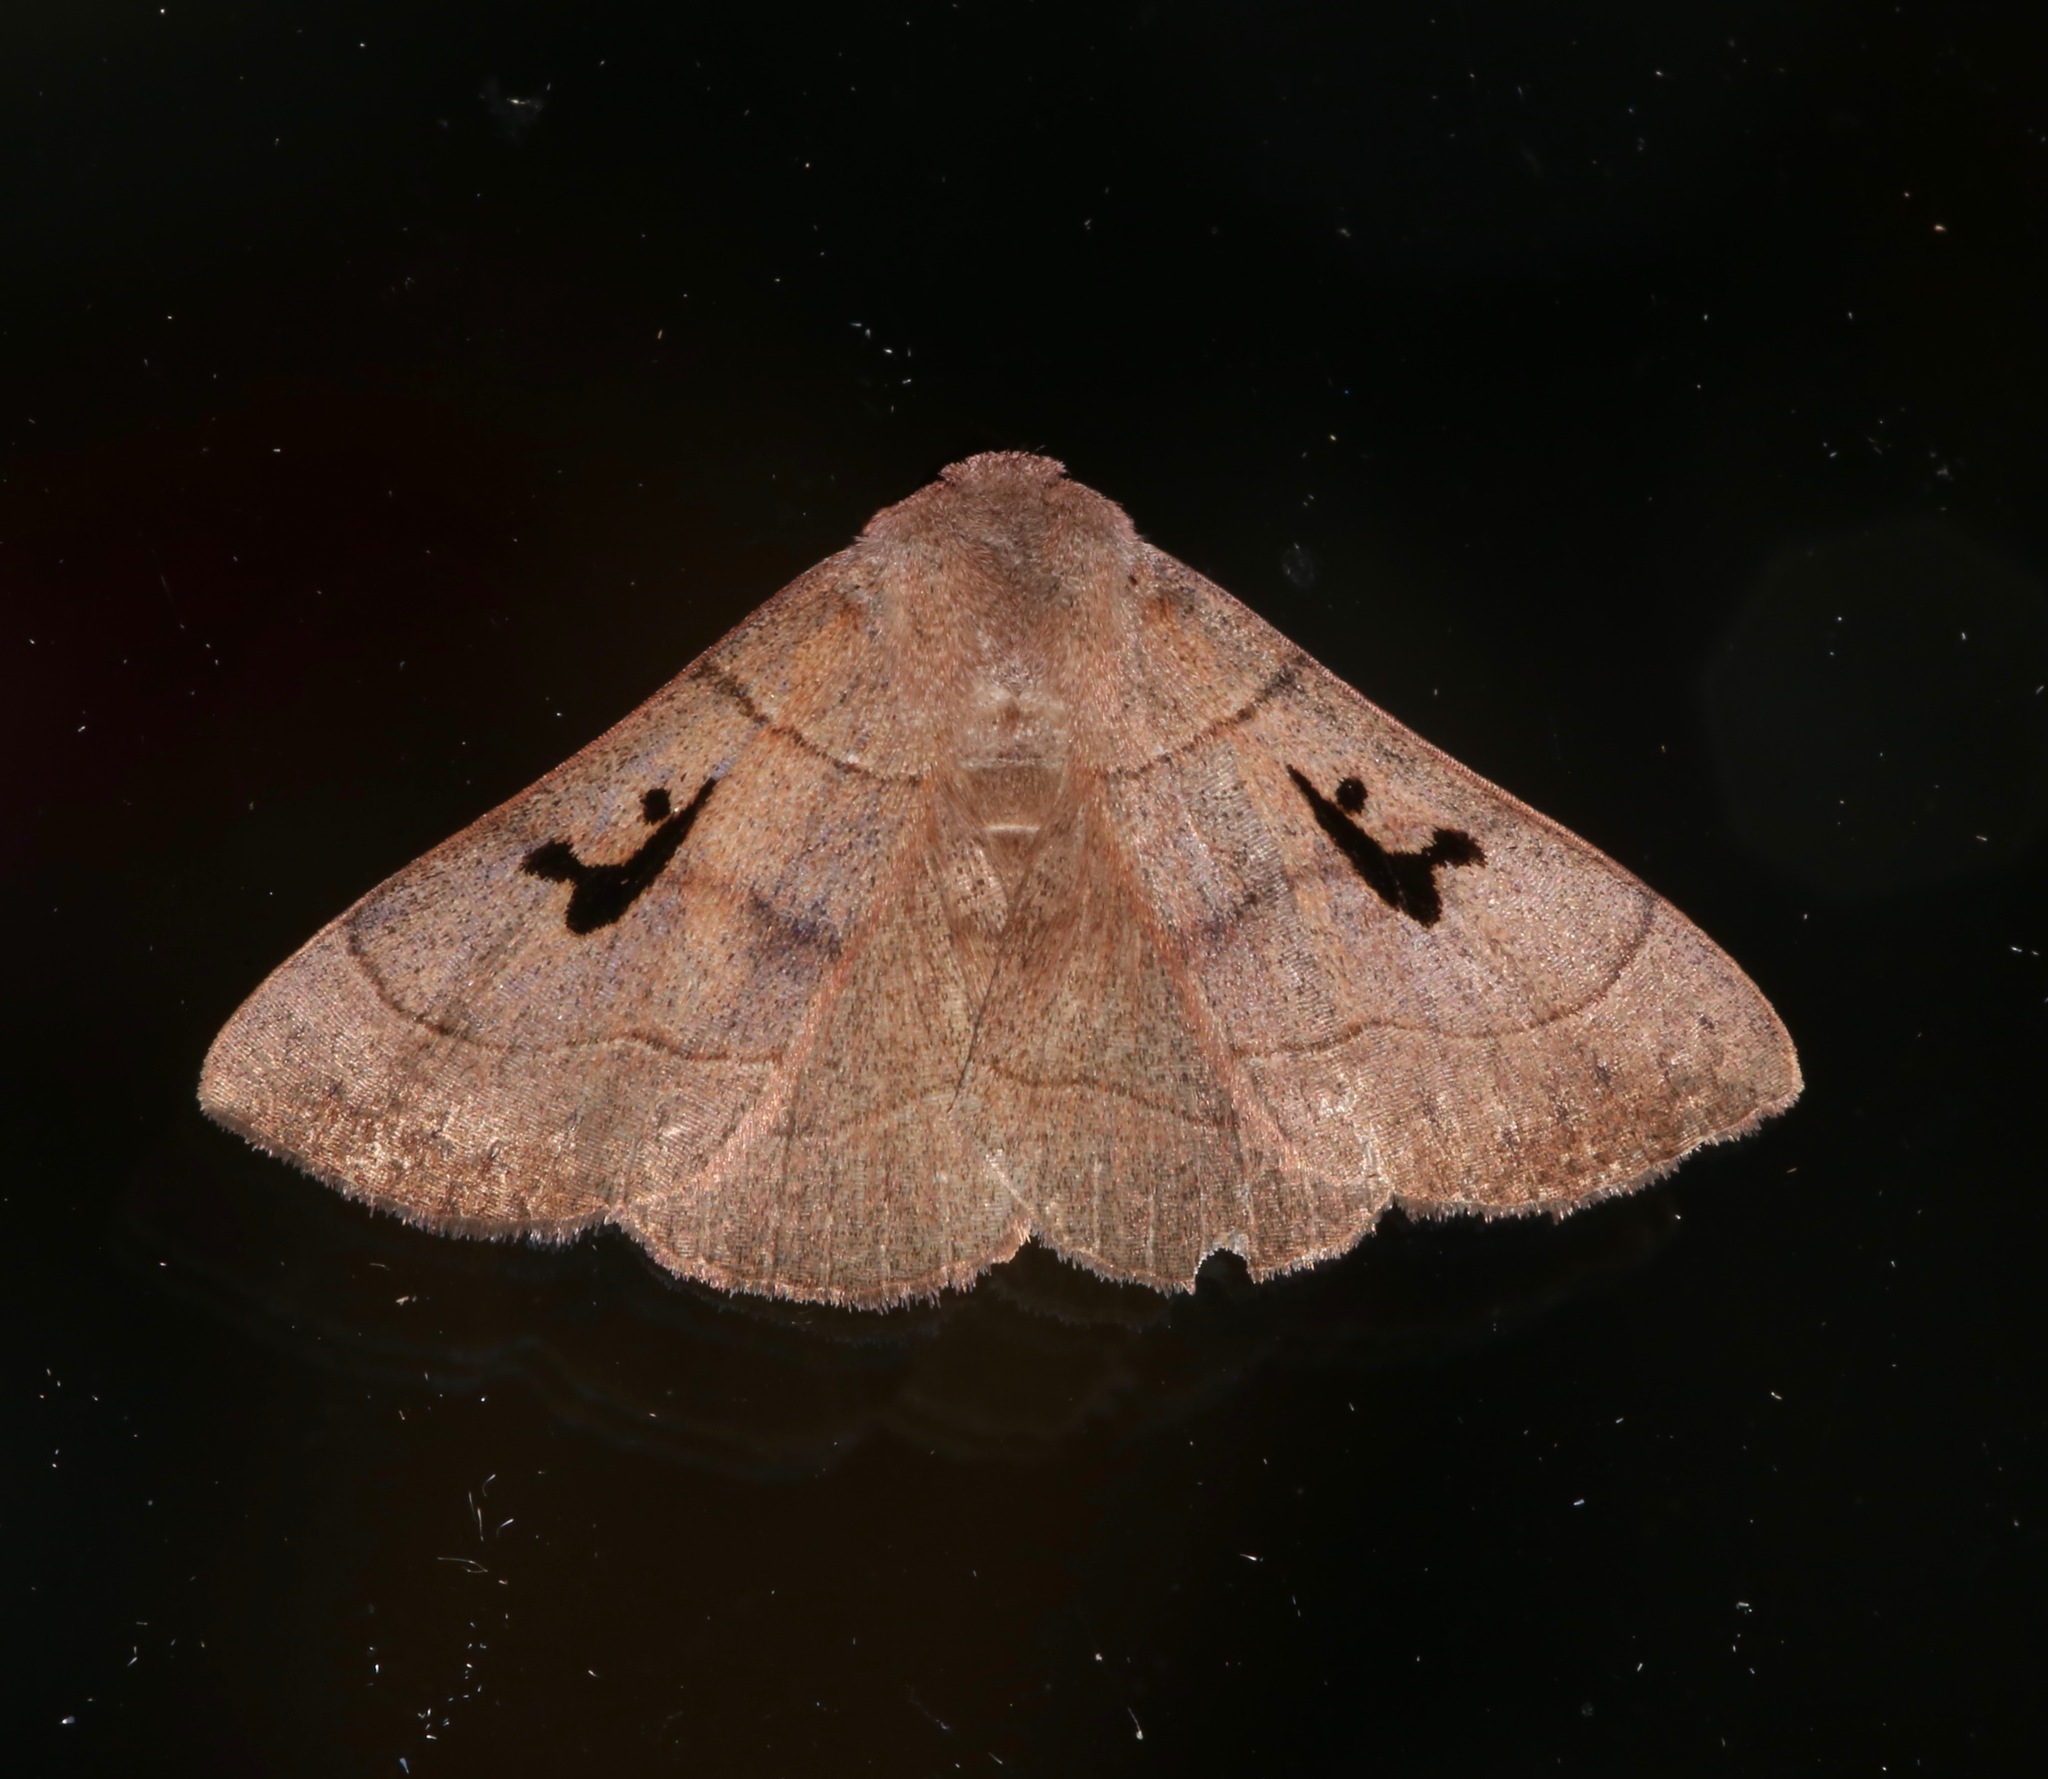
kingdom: Animalia
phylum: Arthropoda
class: Insecta
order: Lepidoptera
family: Erebidae
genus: Panopoda
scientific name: Panopoda carneicosta
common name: Brown panopoda moth
